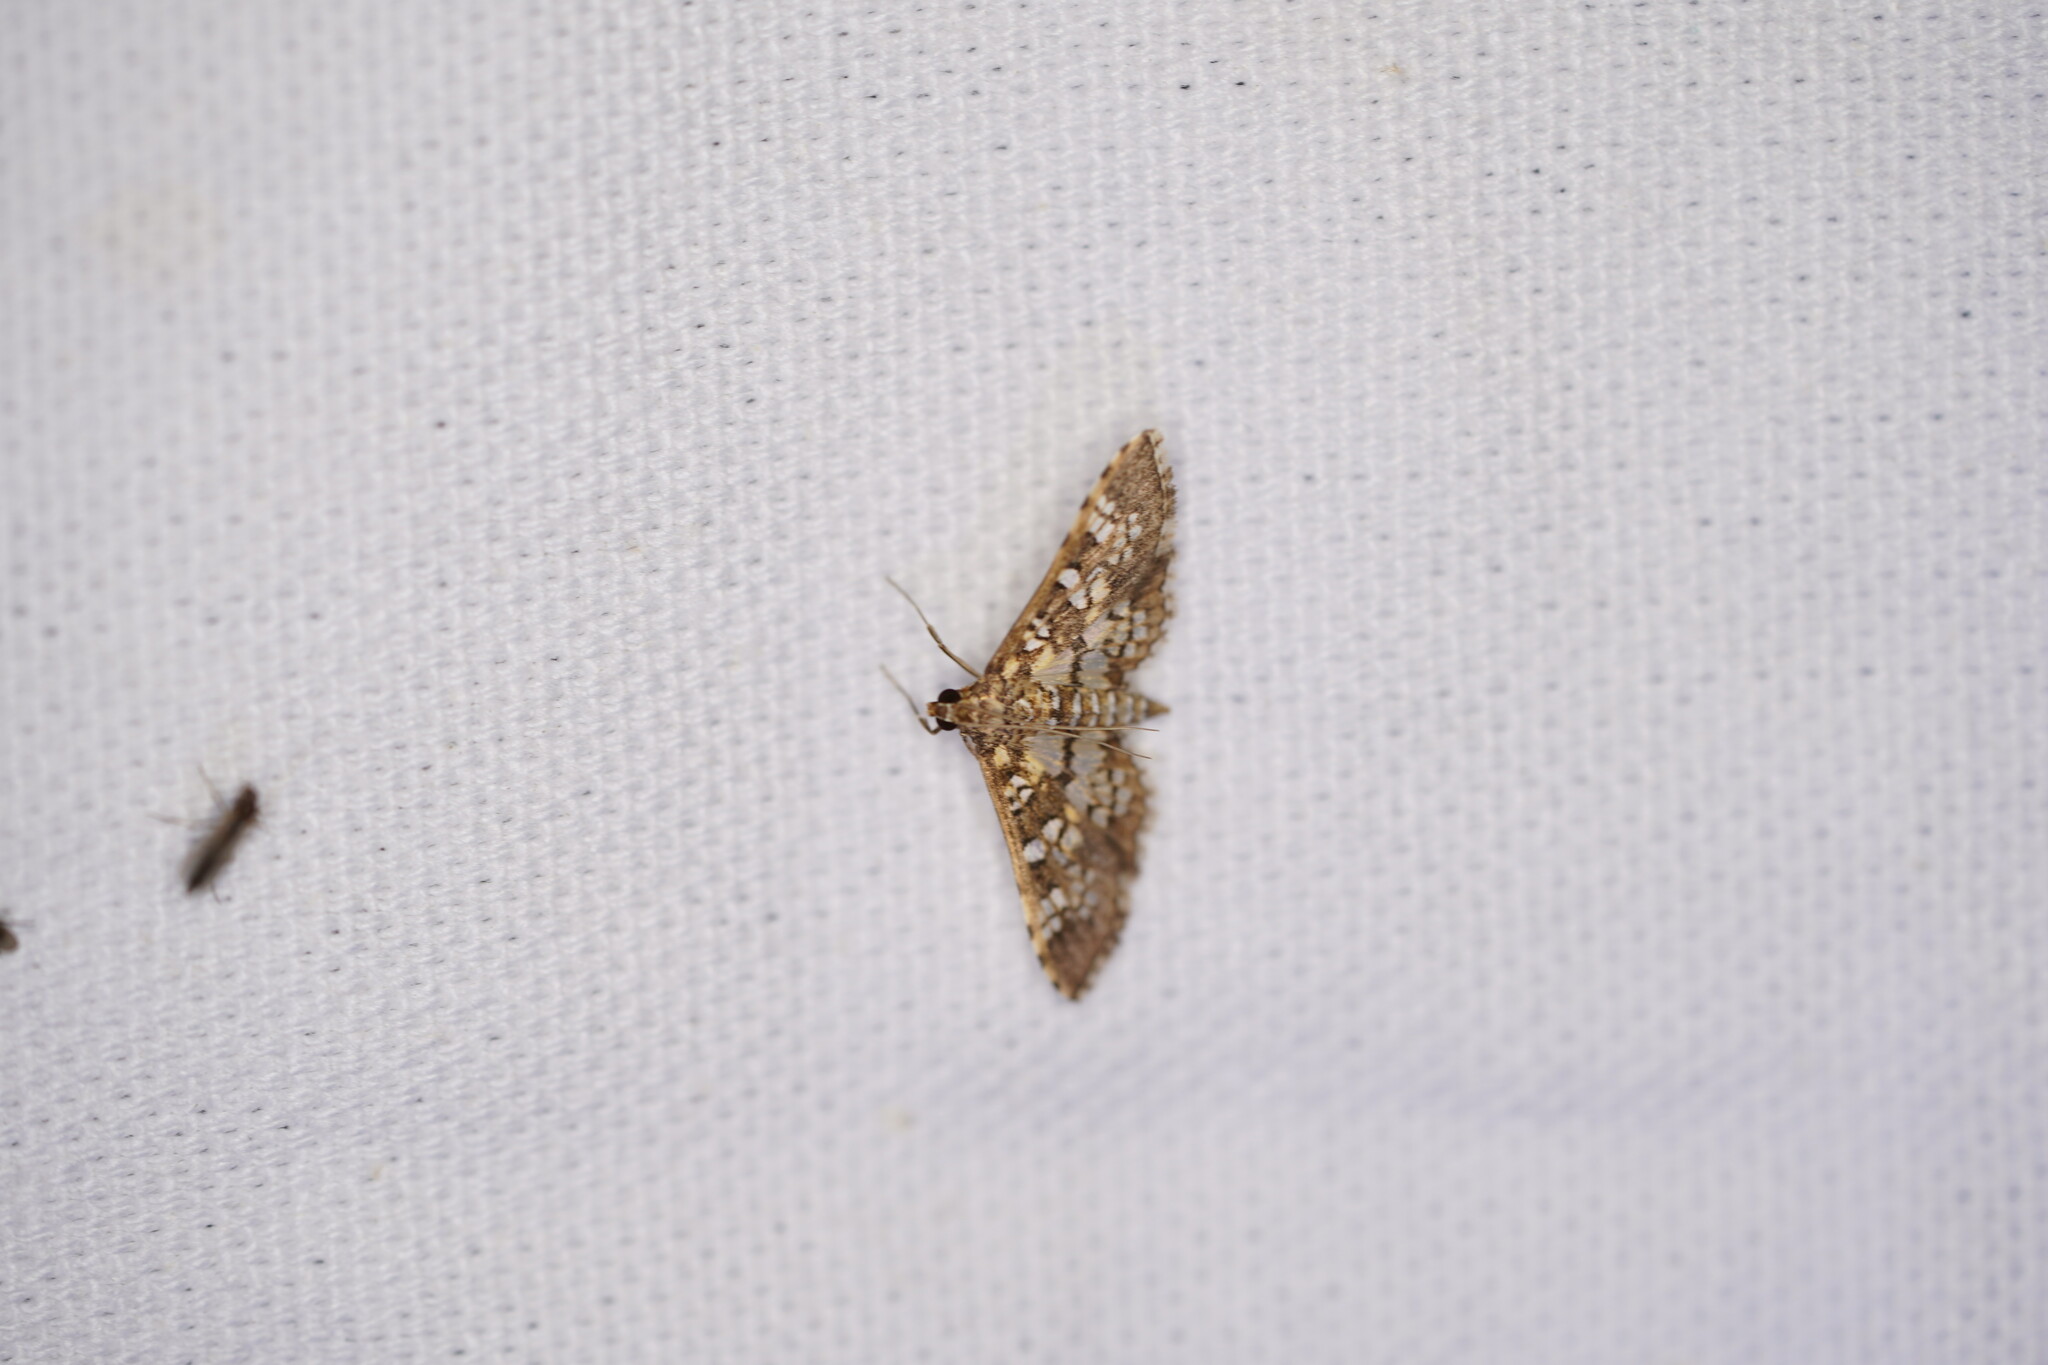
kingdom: Animalia
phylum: Arthropoda
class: Insecta
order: Lepidoptera
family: Crambidae
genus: Samea
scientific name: Samea ecclesialis
